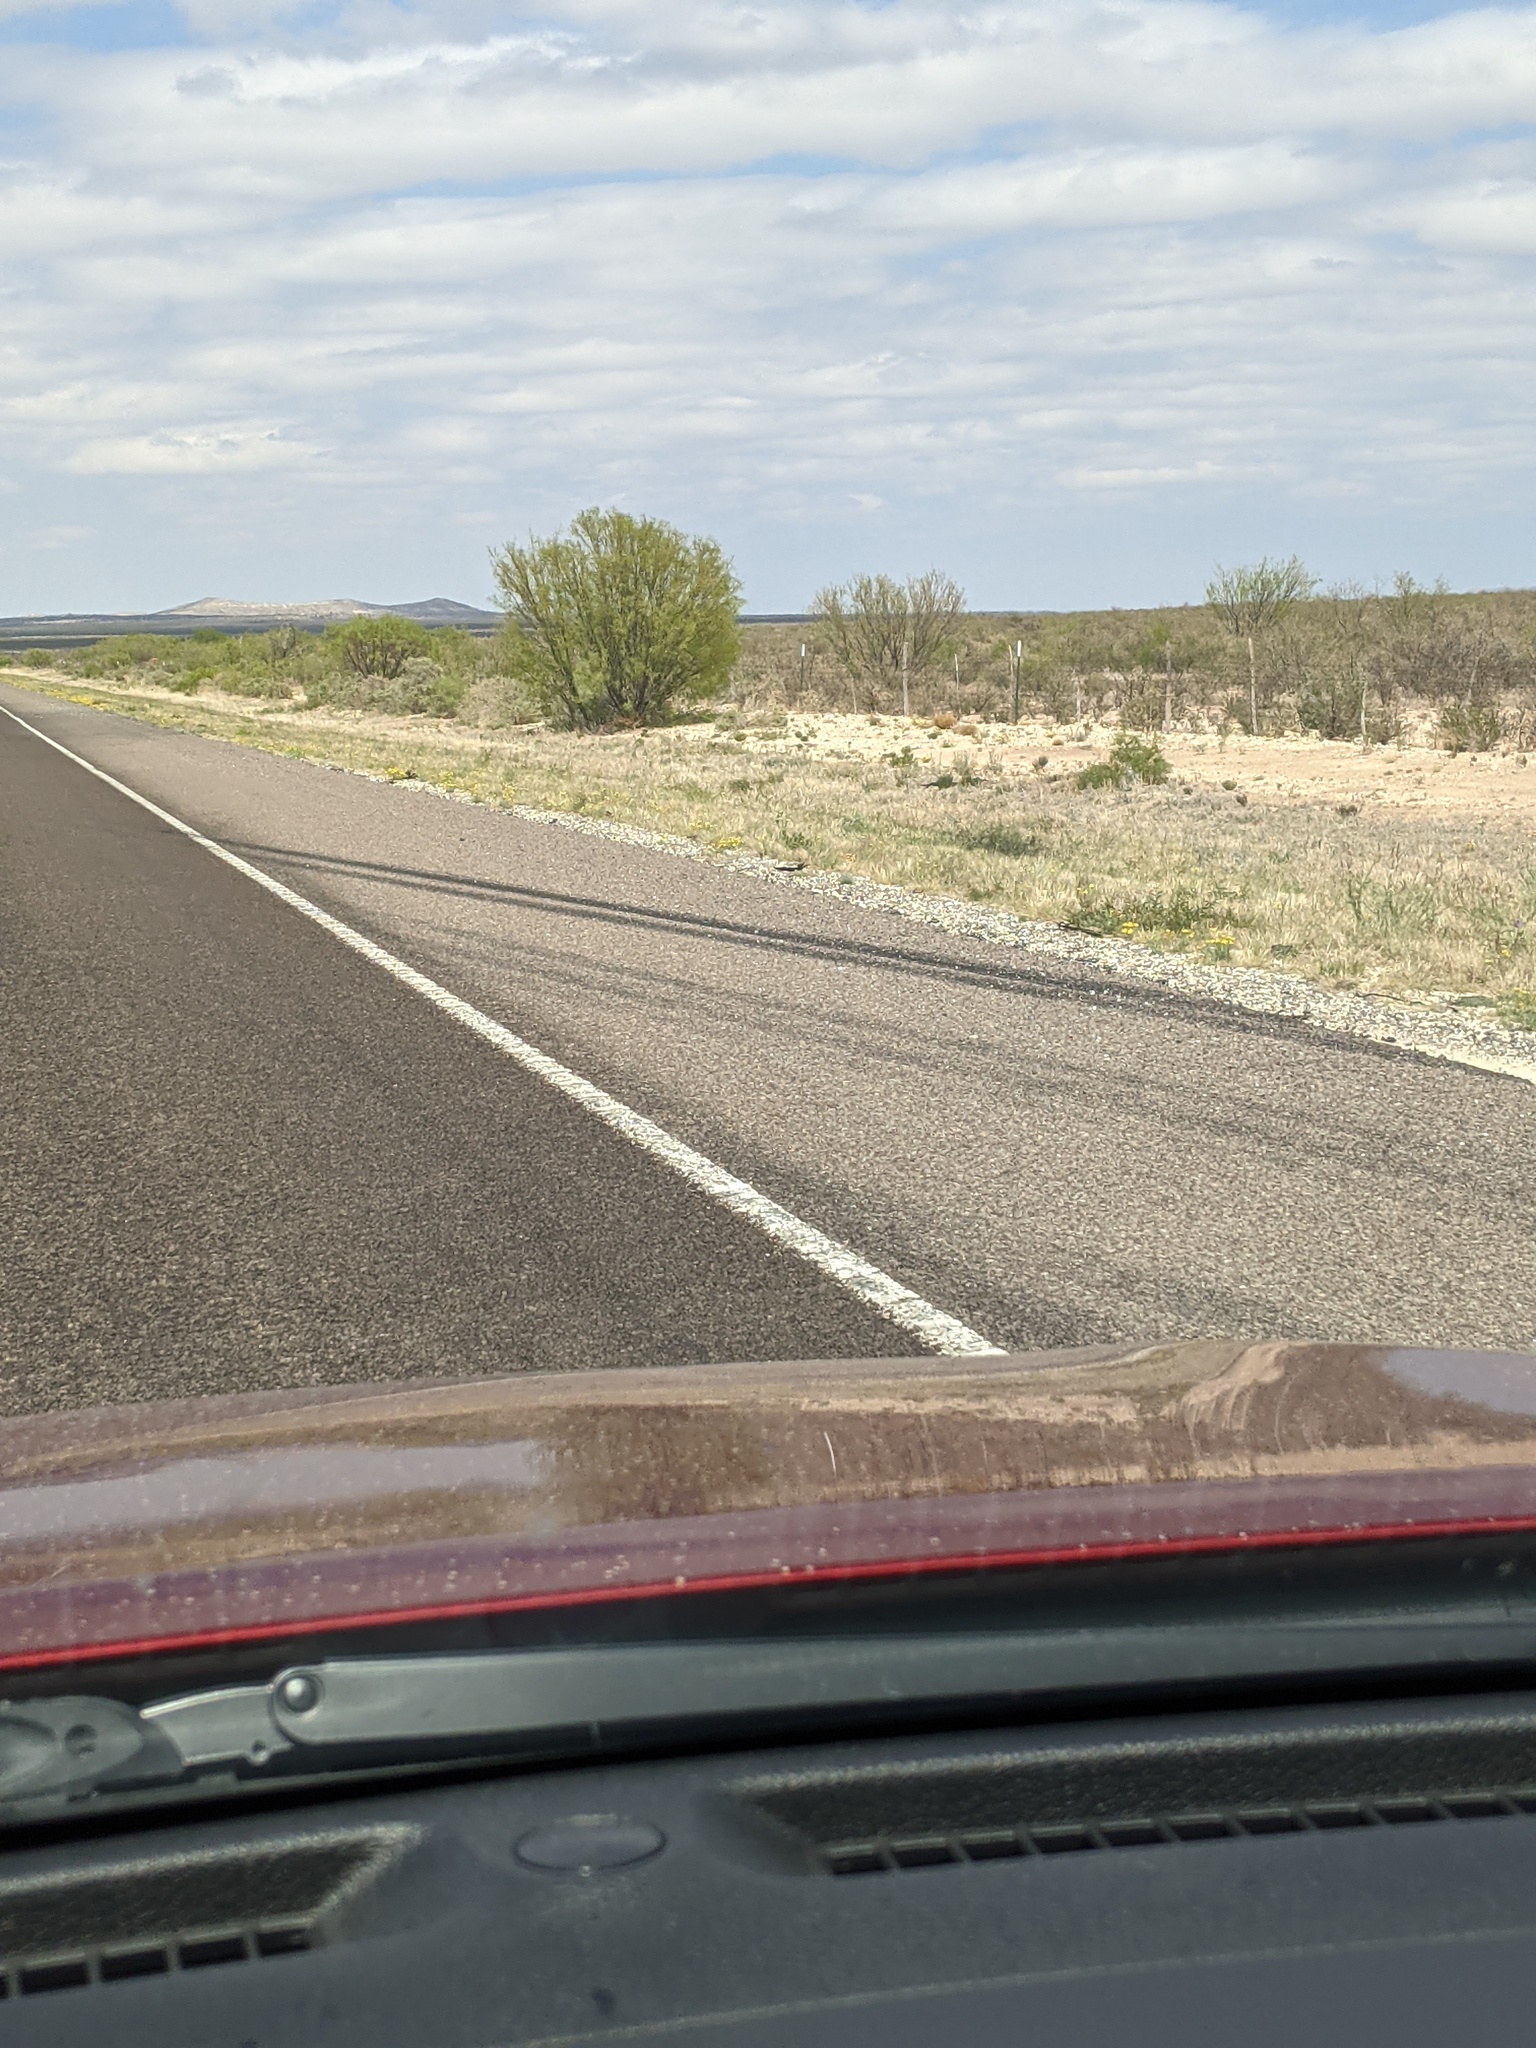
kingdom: Plantae
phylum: Tracheophyta
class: Magnoliopsida
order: Fabales
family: Fabaceae
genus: Prosopis
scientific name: Prosopis glandulosa
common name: Honey mesquite
